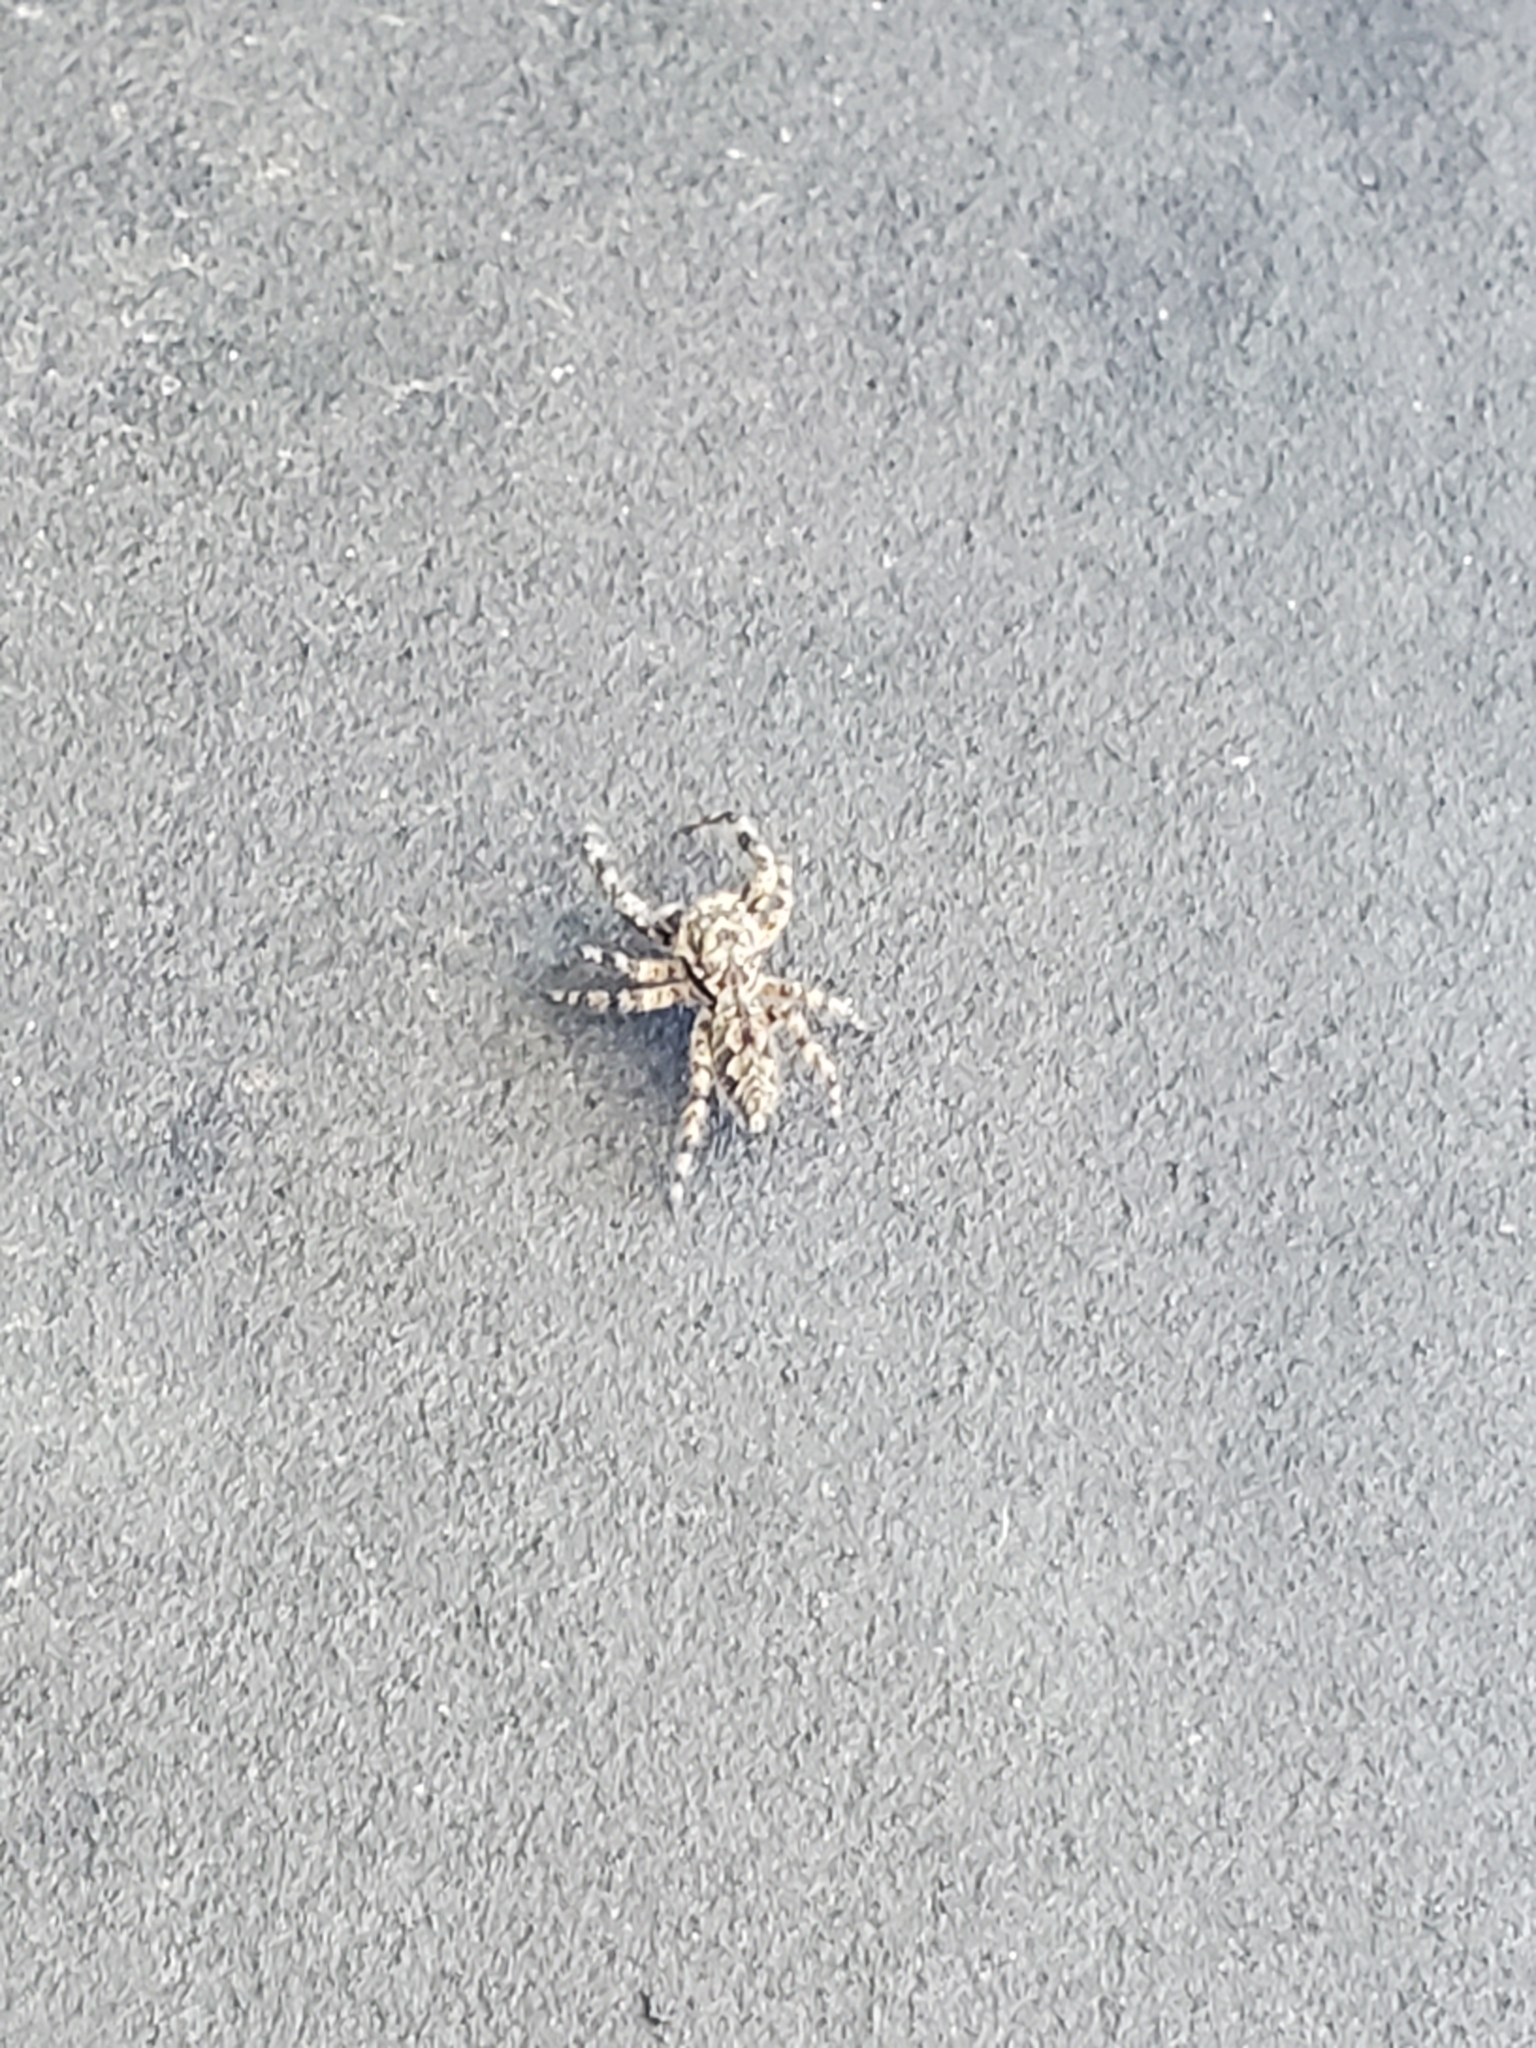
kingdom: Animalia
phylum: Arthropoda
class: Arachnida
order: Araneae
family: Salticidae
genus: Platycryptus
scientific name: Platycryptus undatus
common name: Tan jumping spider
